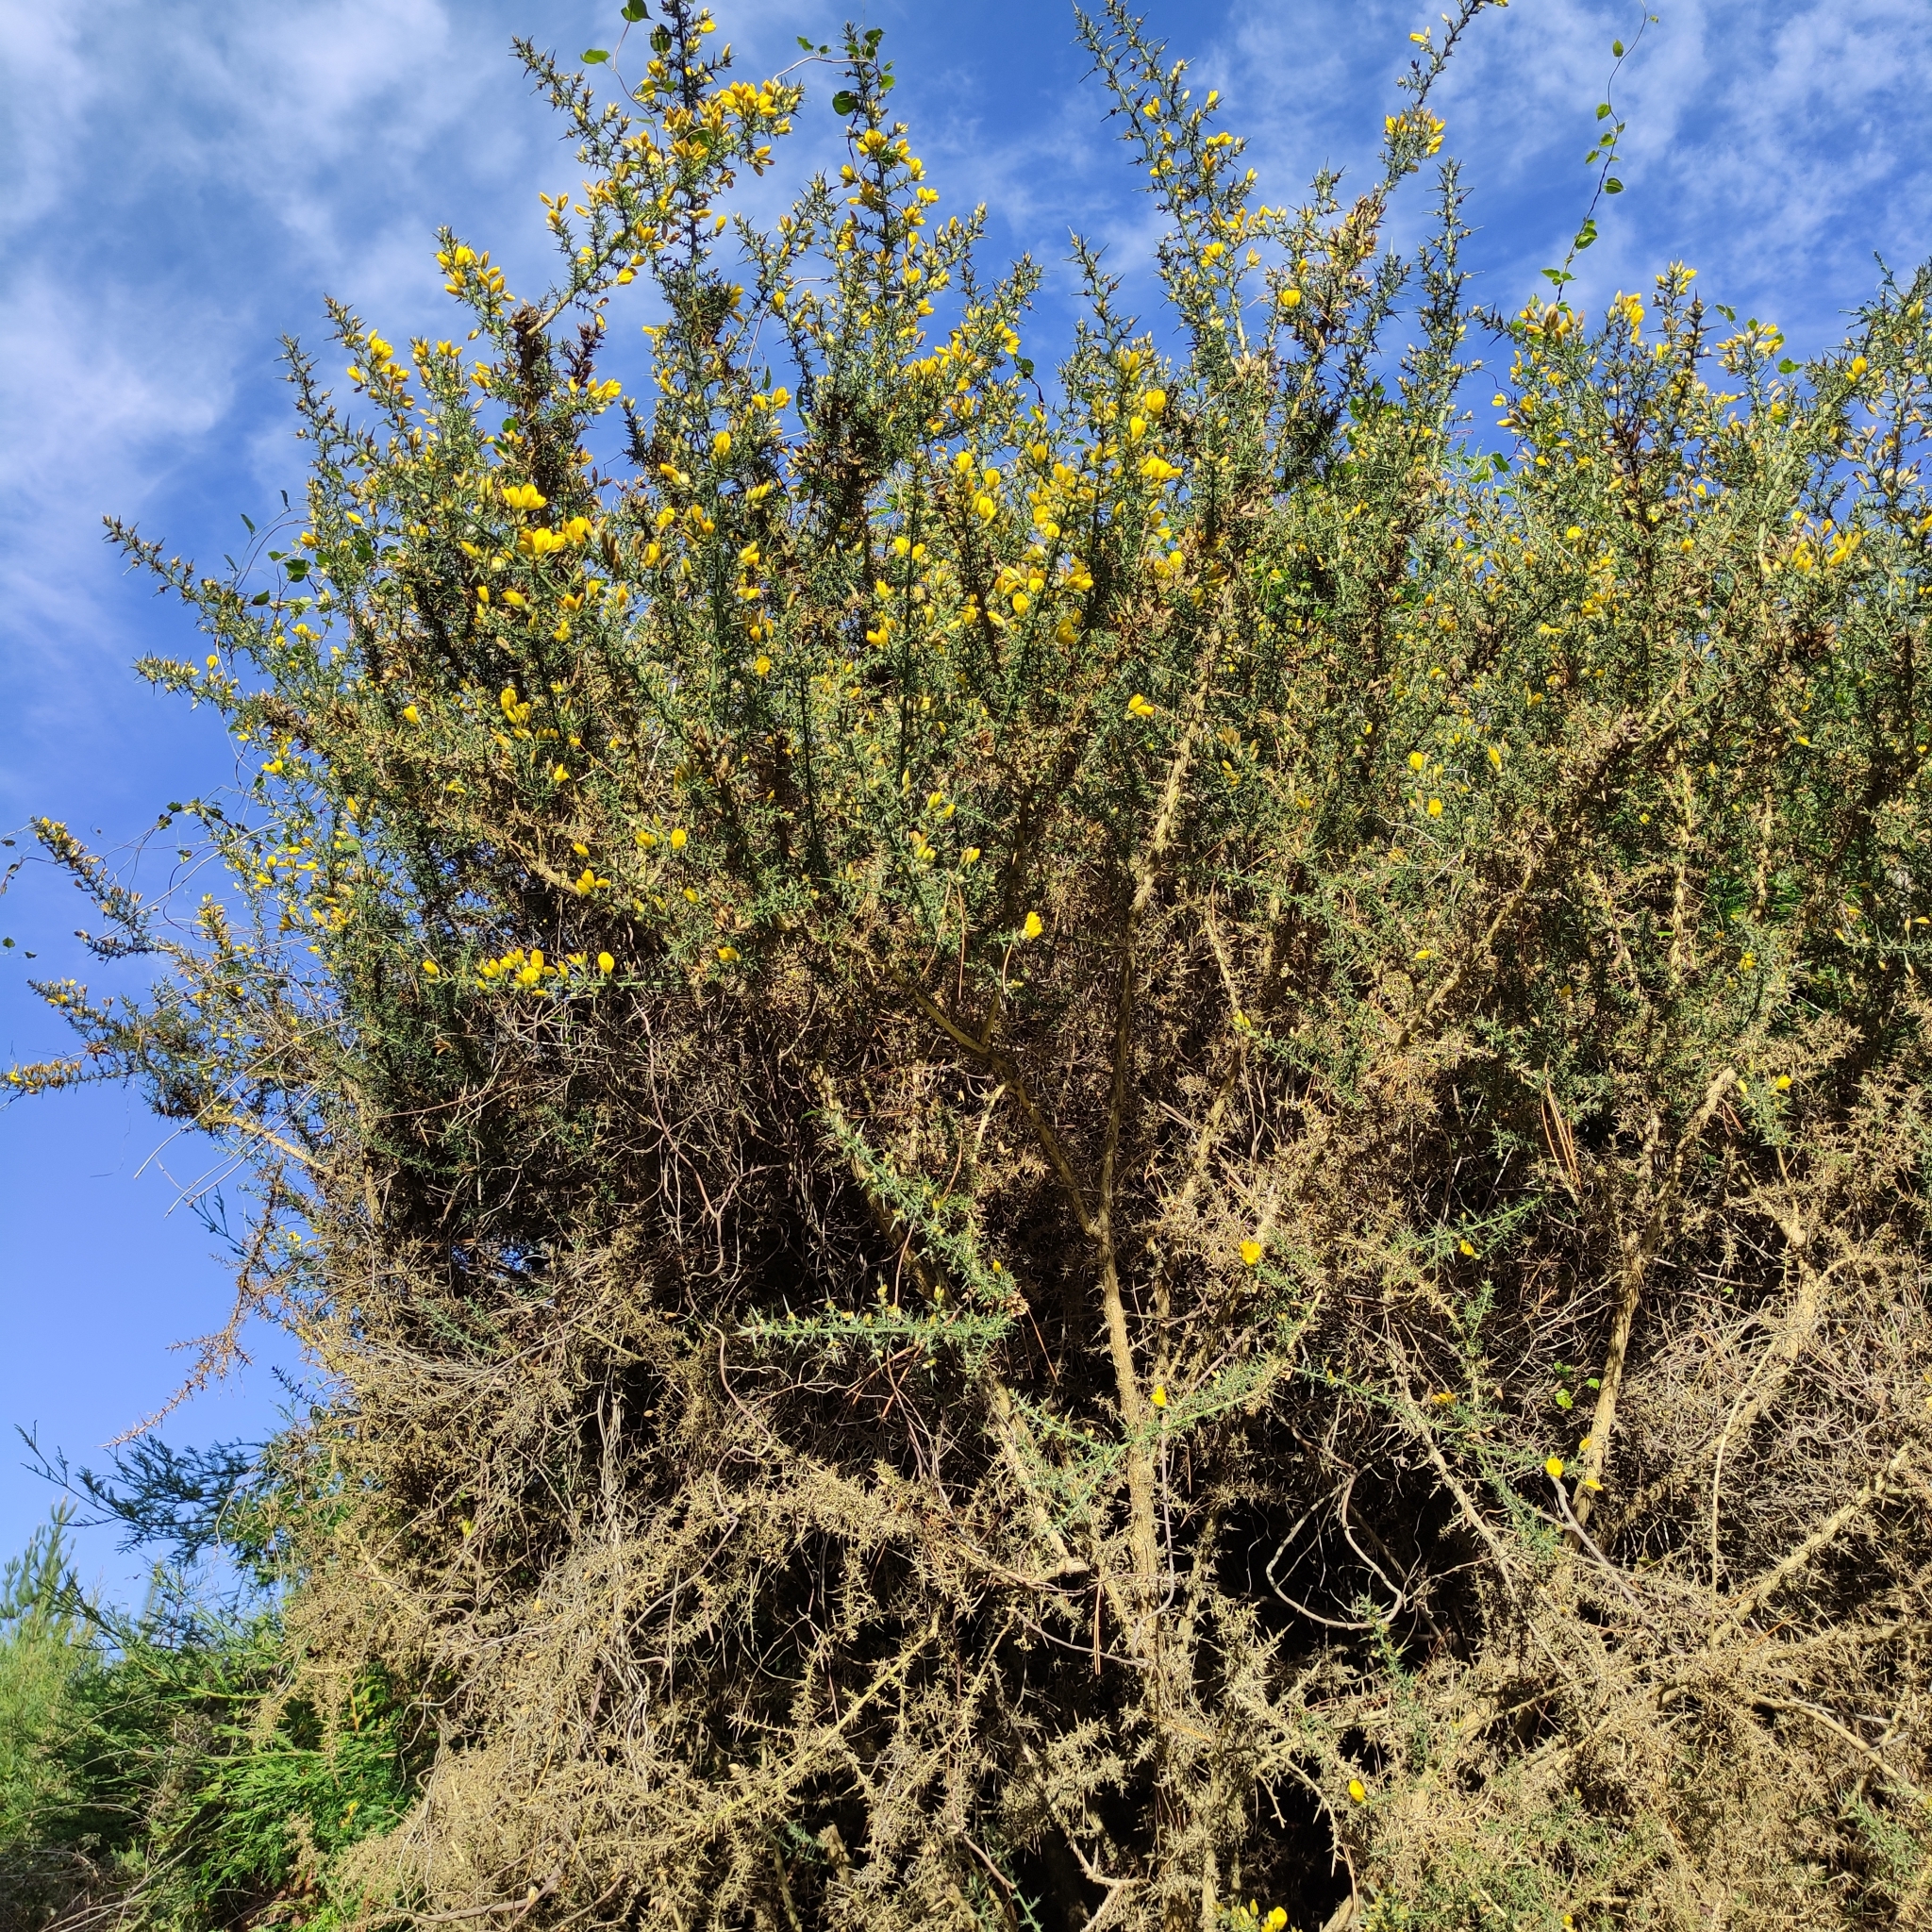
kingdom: Plantae
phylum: Tracheophyta
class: Magnoliopsida
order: Fabales
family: Fabaceae
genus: Ulex
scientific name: Ulex europaeus
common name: Common gorse
